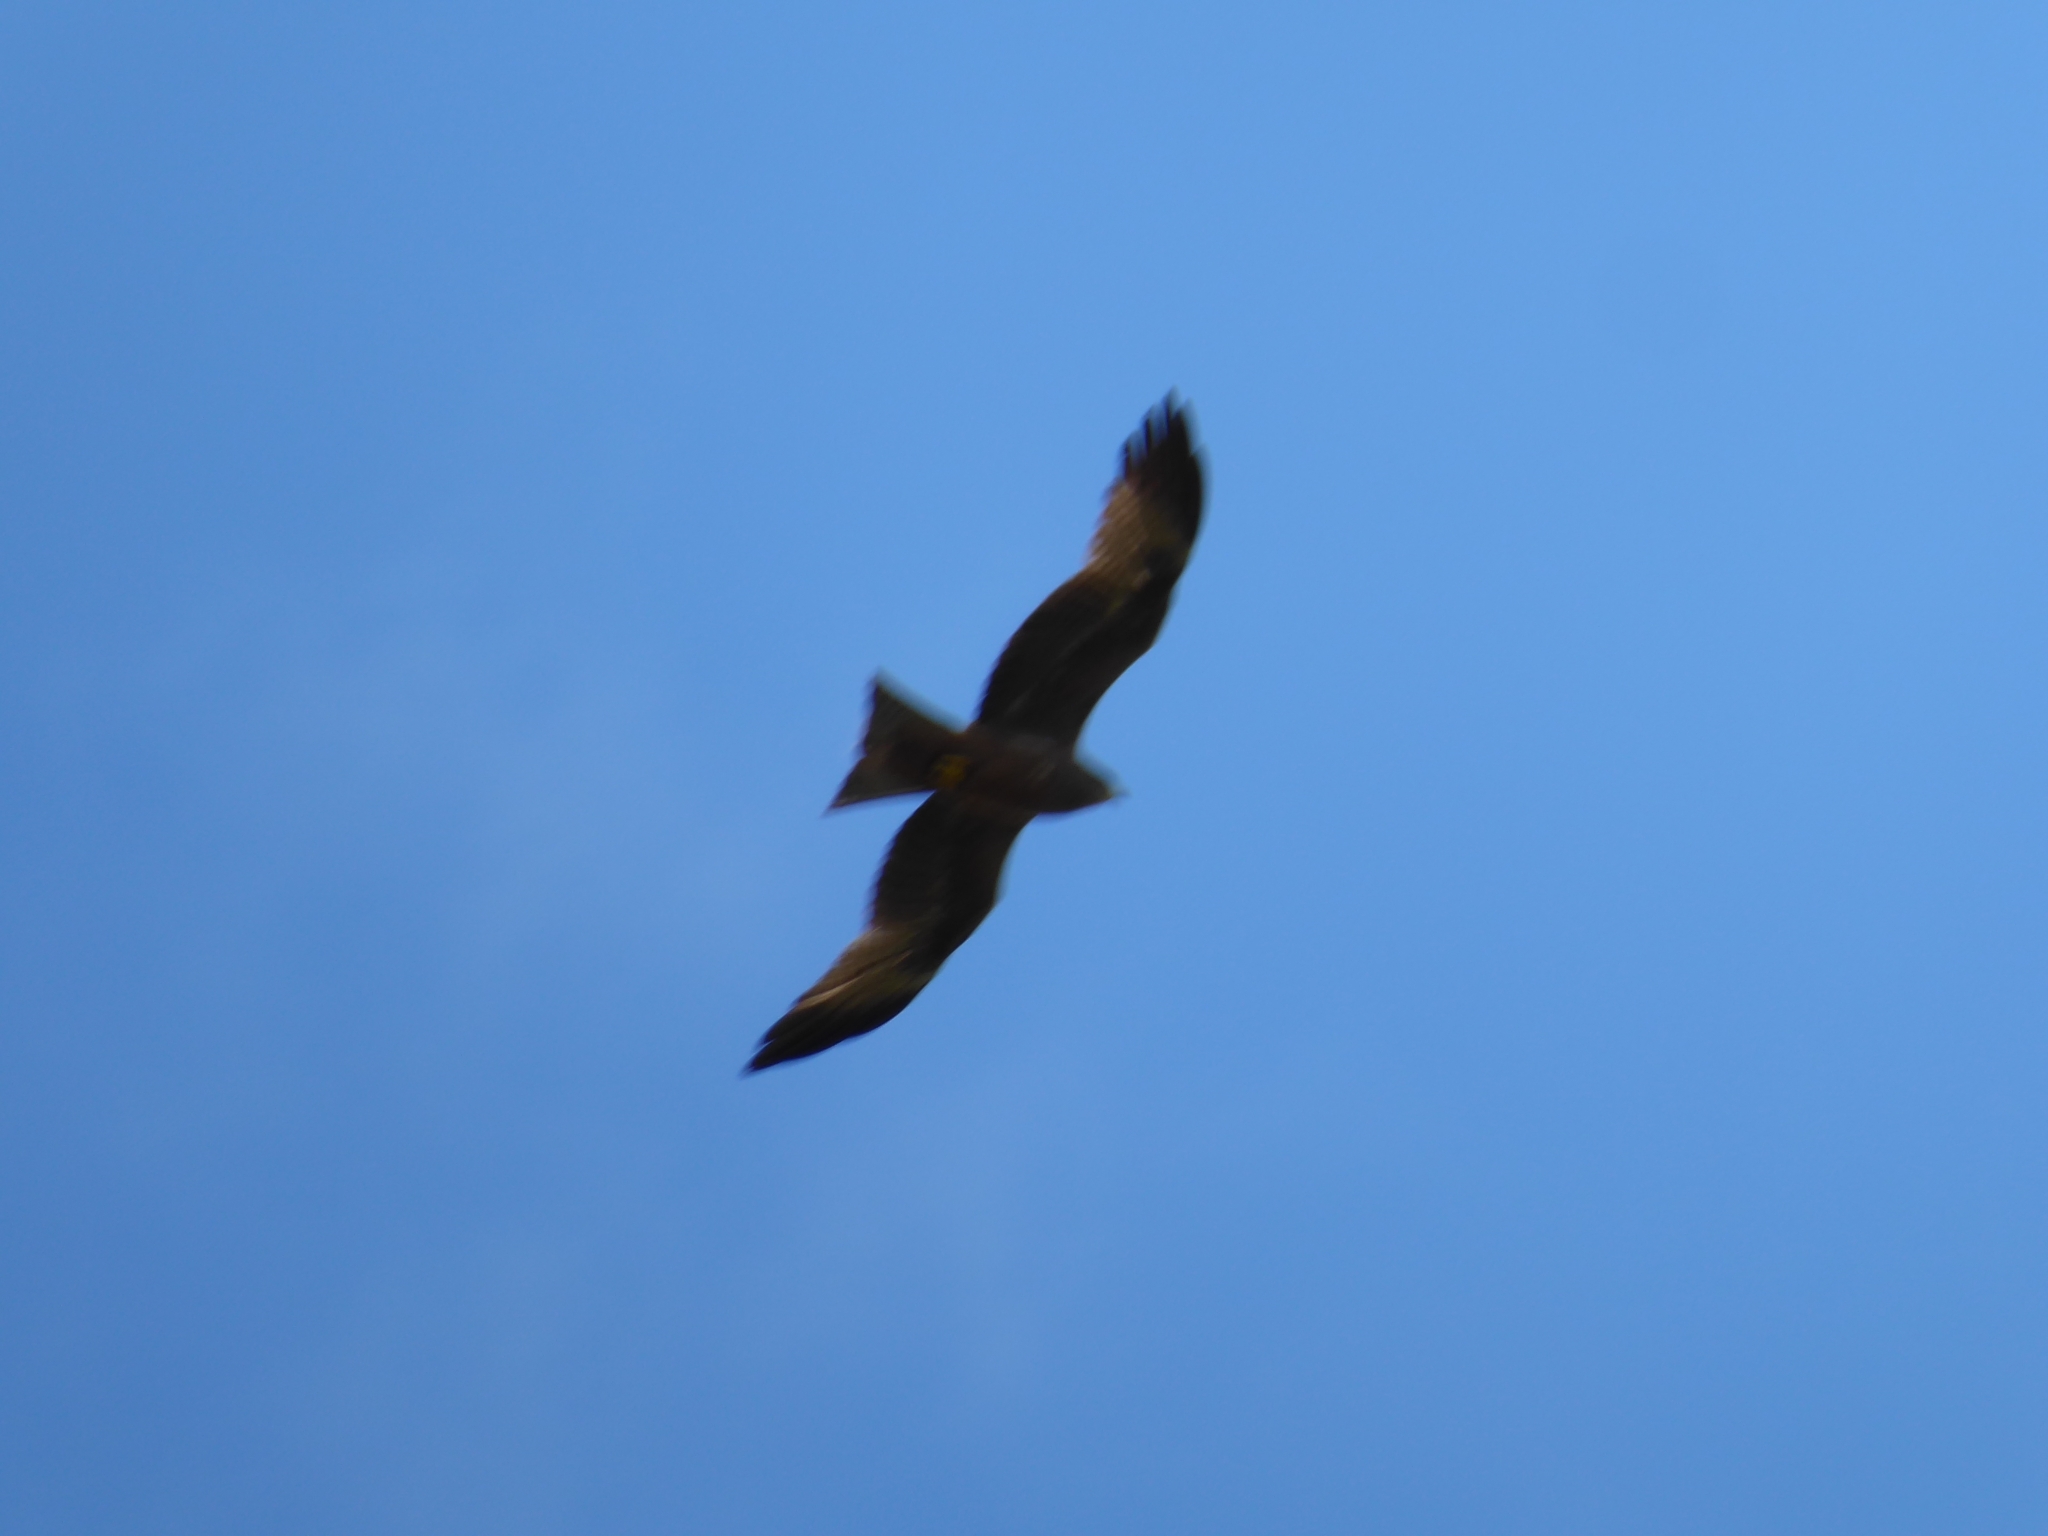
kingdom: Animalia
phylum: Chordata
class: Aves
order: Accipitriformes
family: Accipitridae
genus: Milvus
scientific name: Milvus migrans
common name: Black kite
